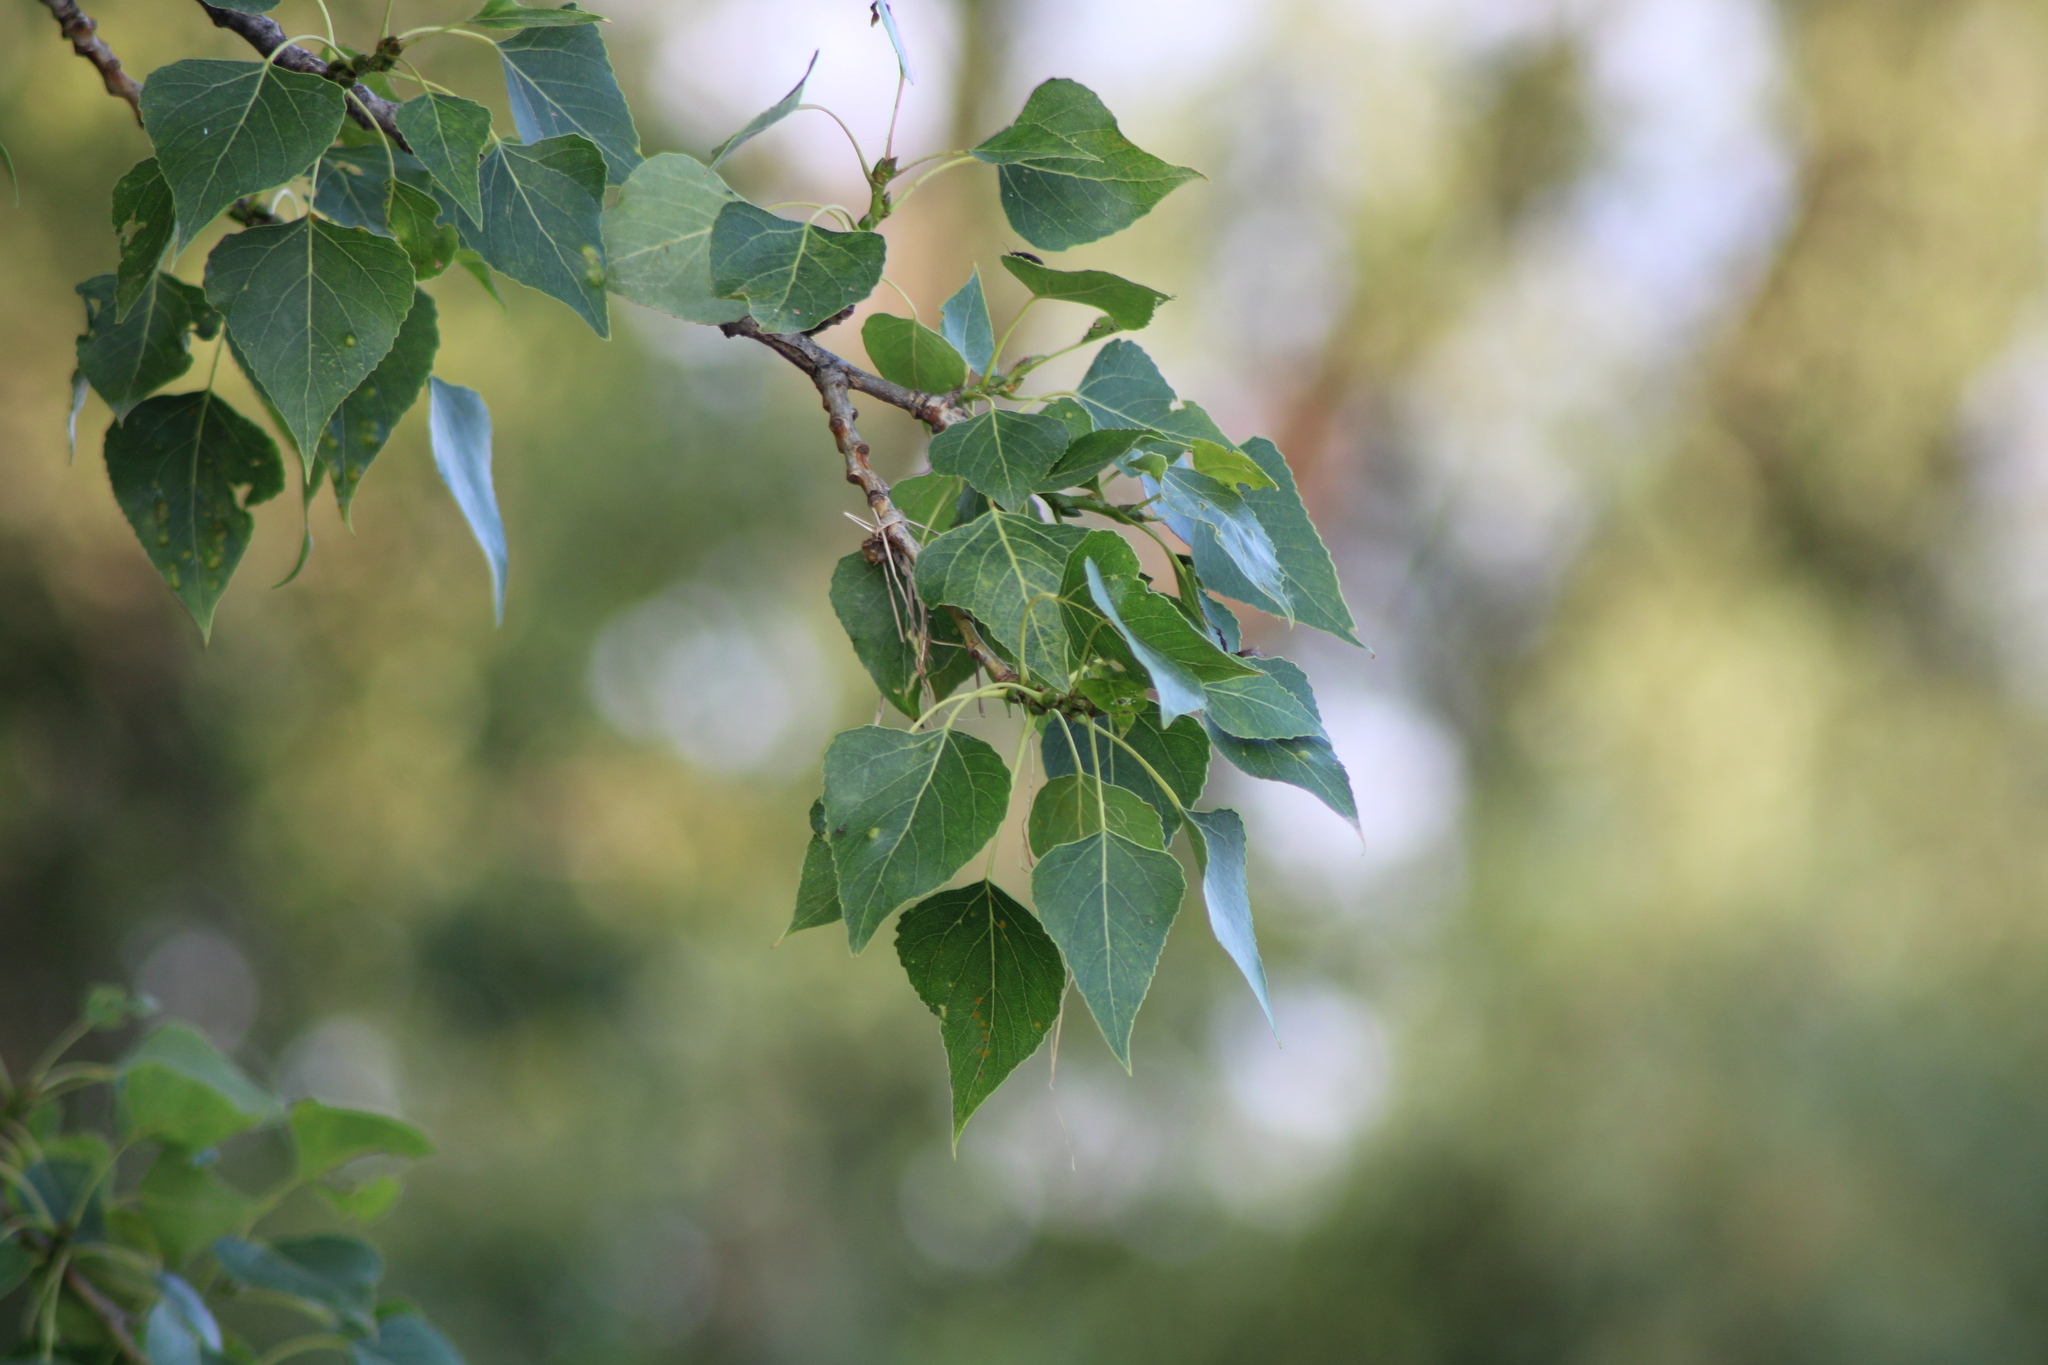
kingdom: Plantae
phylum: Tracheophyta
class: Magnoliopsida
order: Malpighiales
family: Salicaceae
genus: Populus
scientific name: Populus nigra
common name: Black poplar
